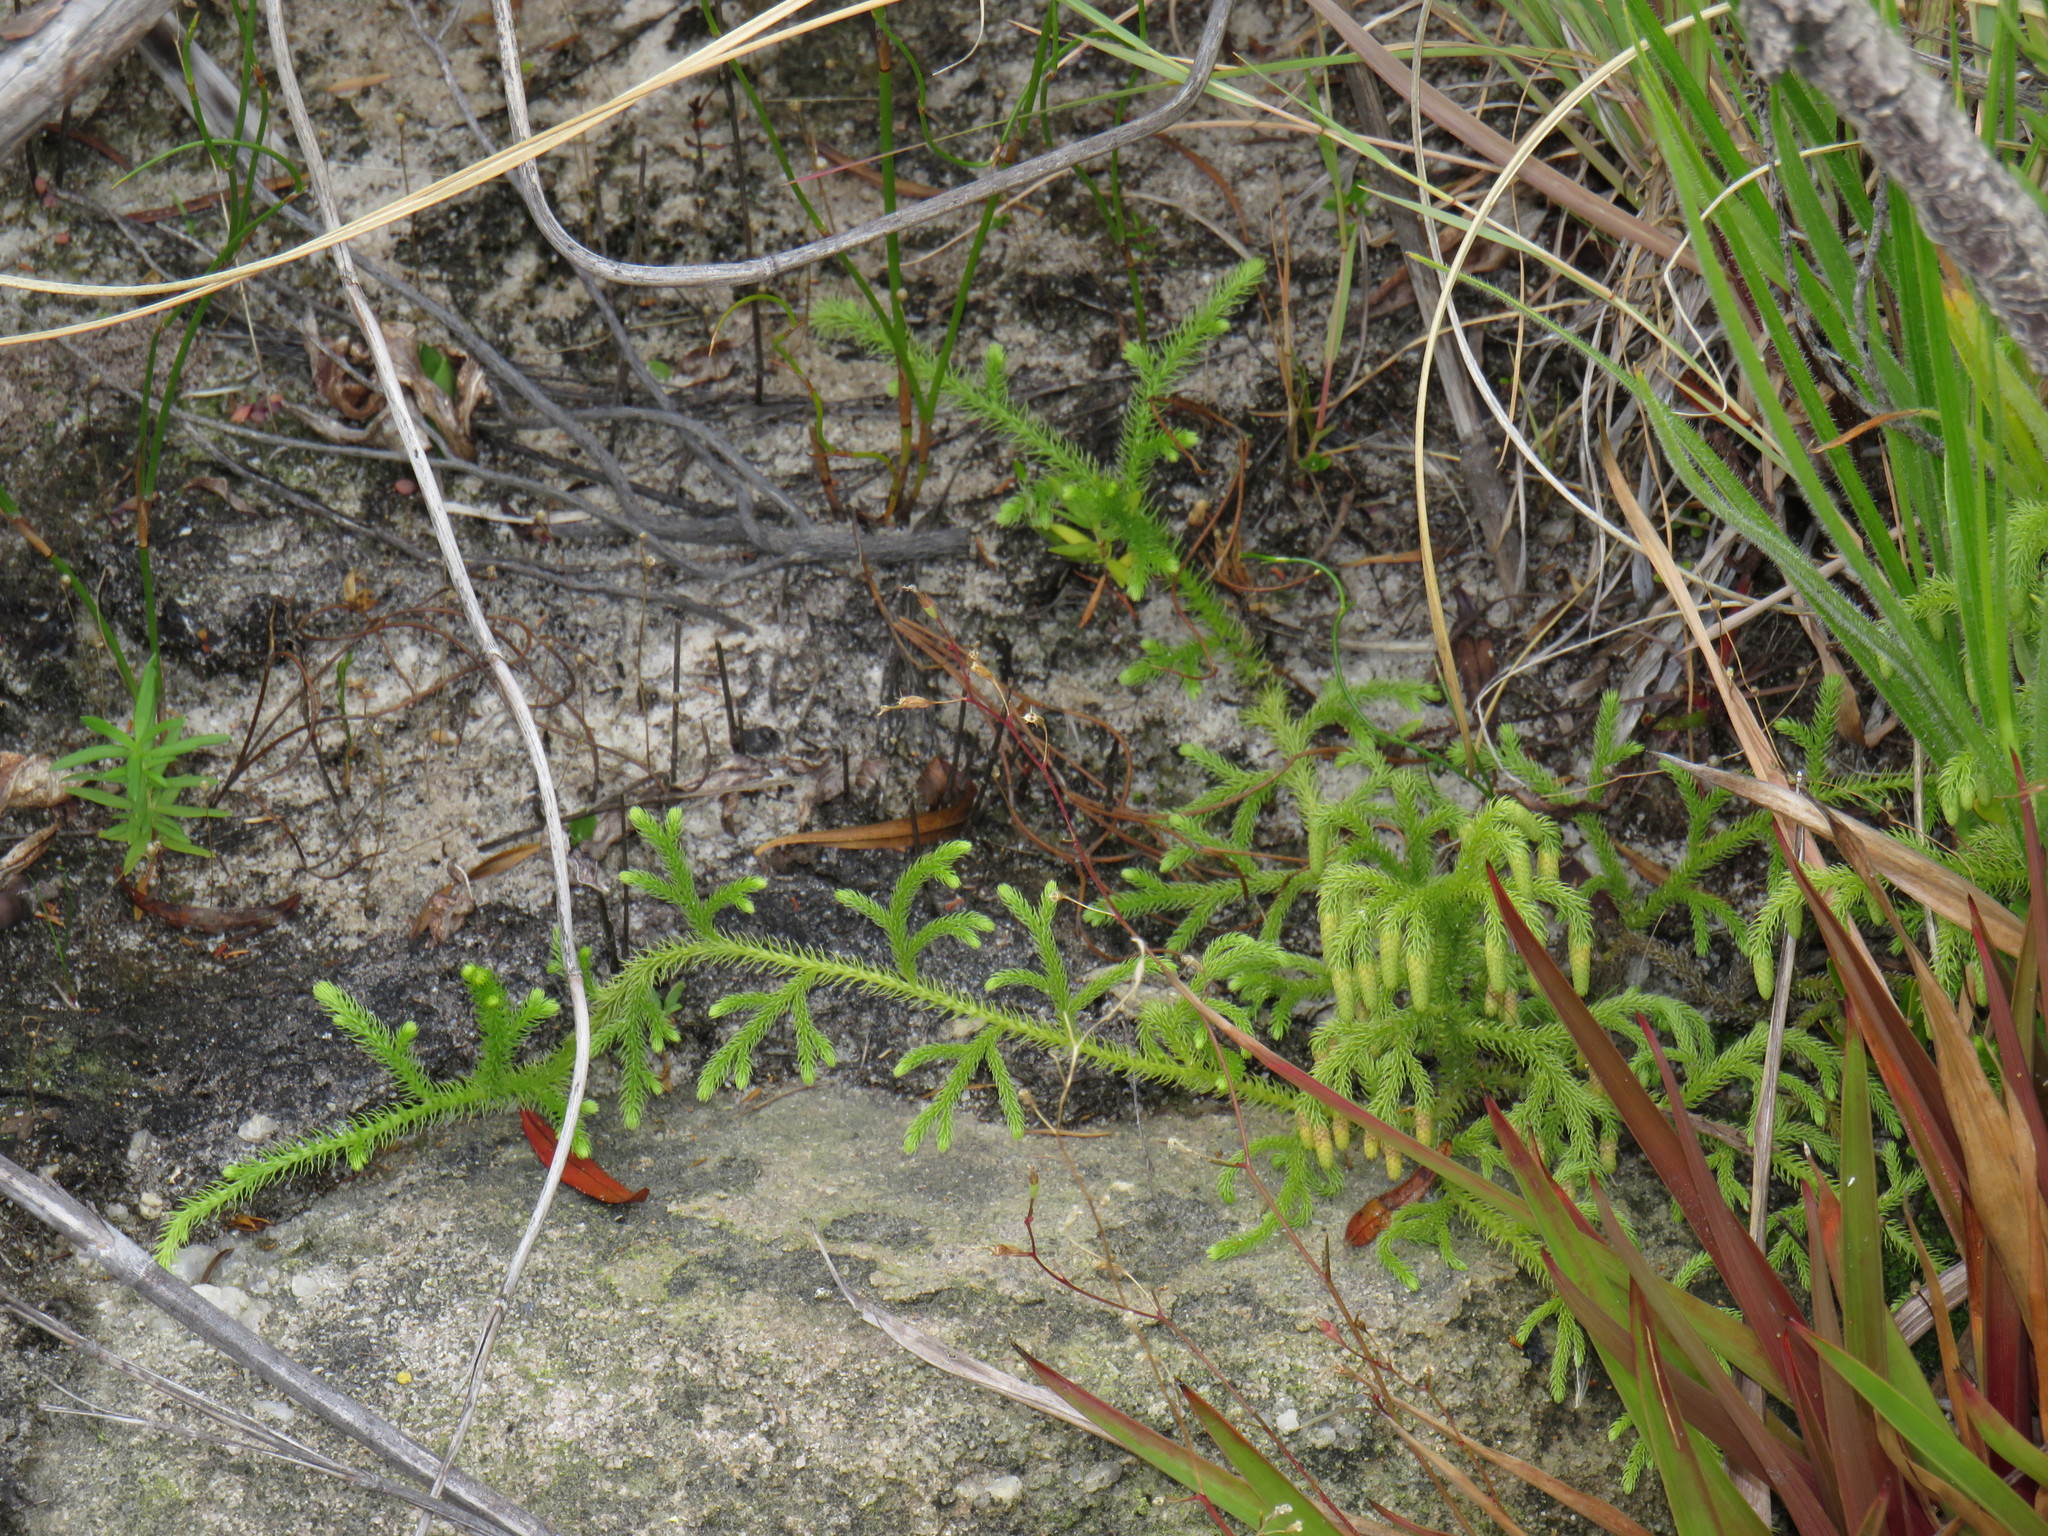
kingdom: Plantae
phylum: Tracheophyta
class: Lycopodiopsida
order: Lycopodiales
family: Lycopodiaceae
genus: Palhinhaea
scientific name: Palhinhaea cernua
